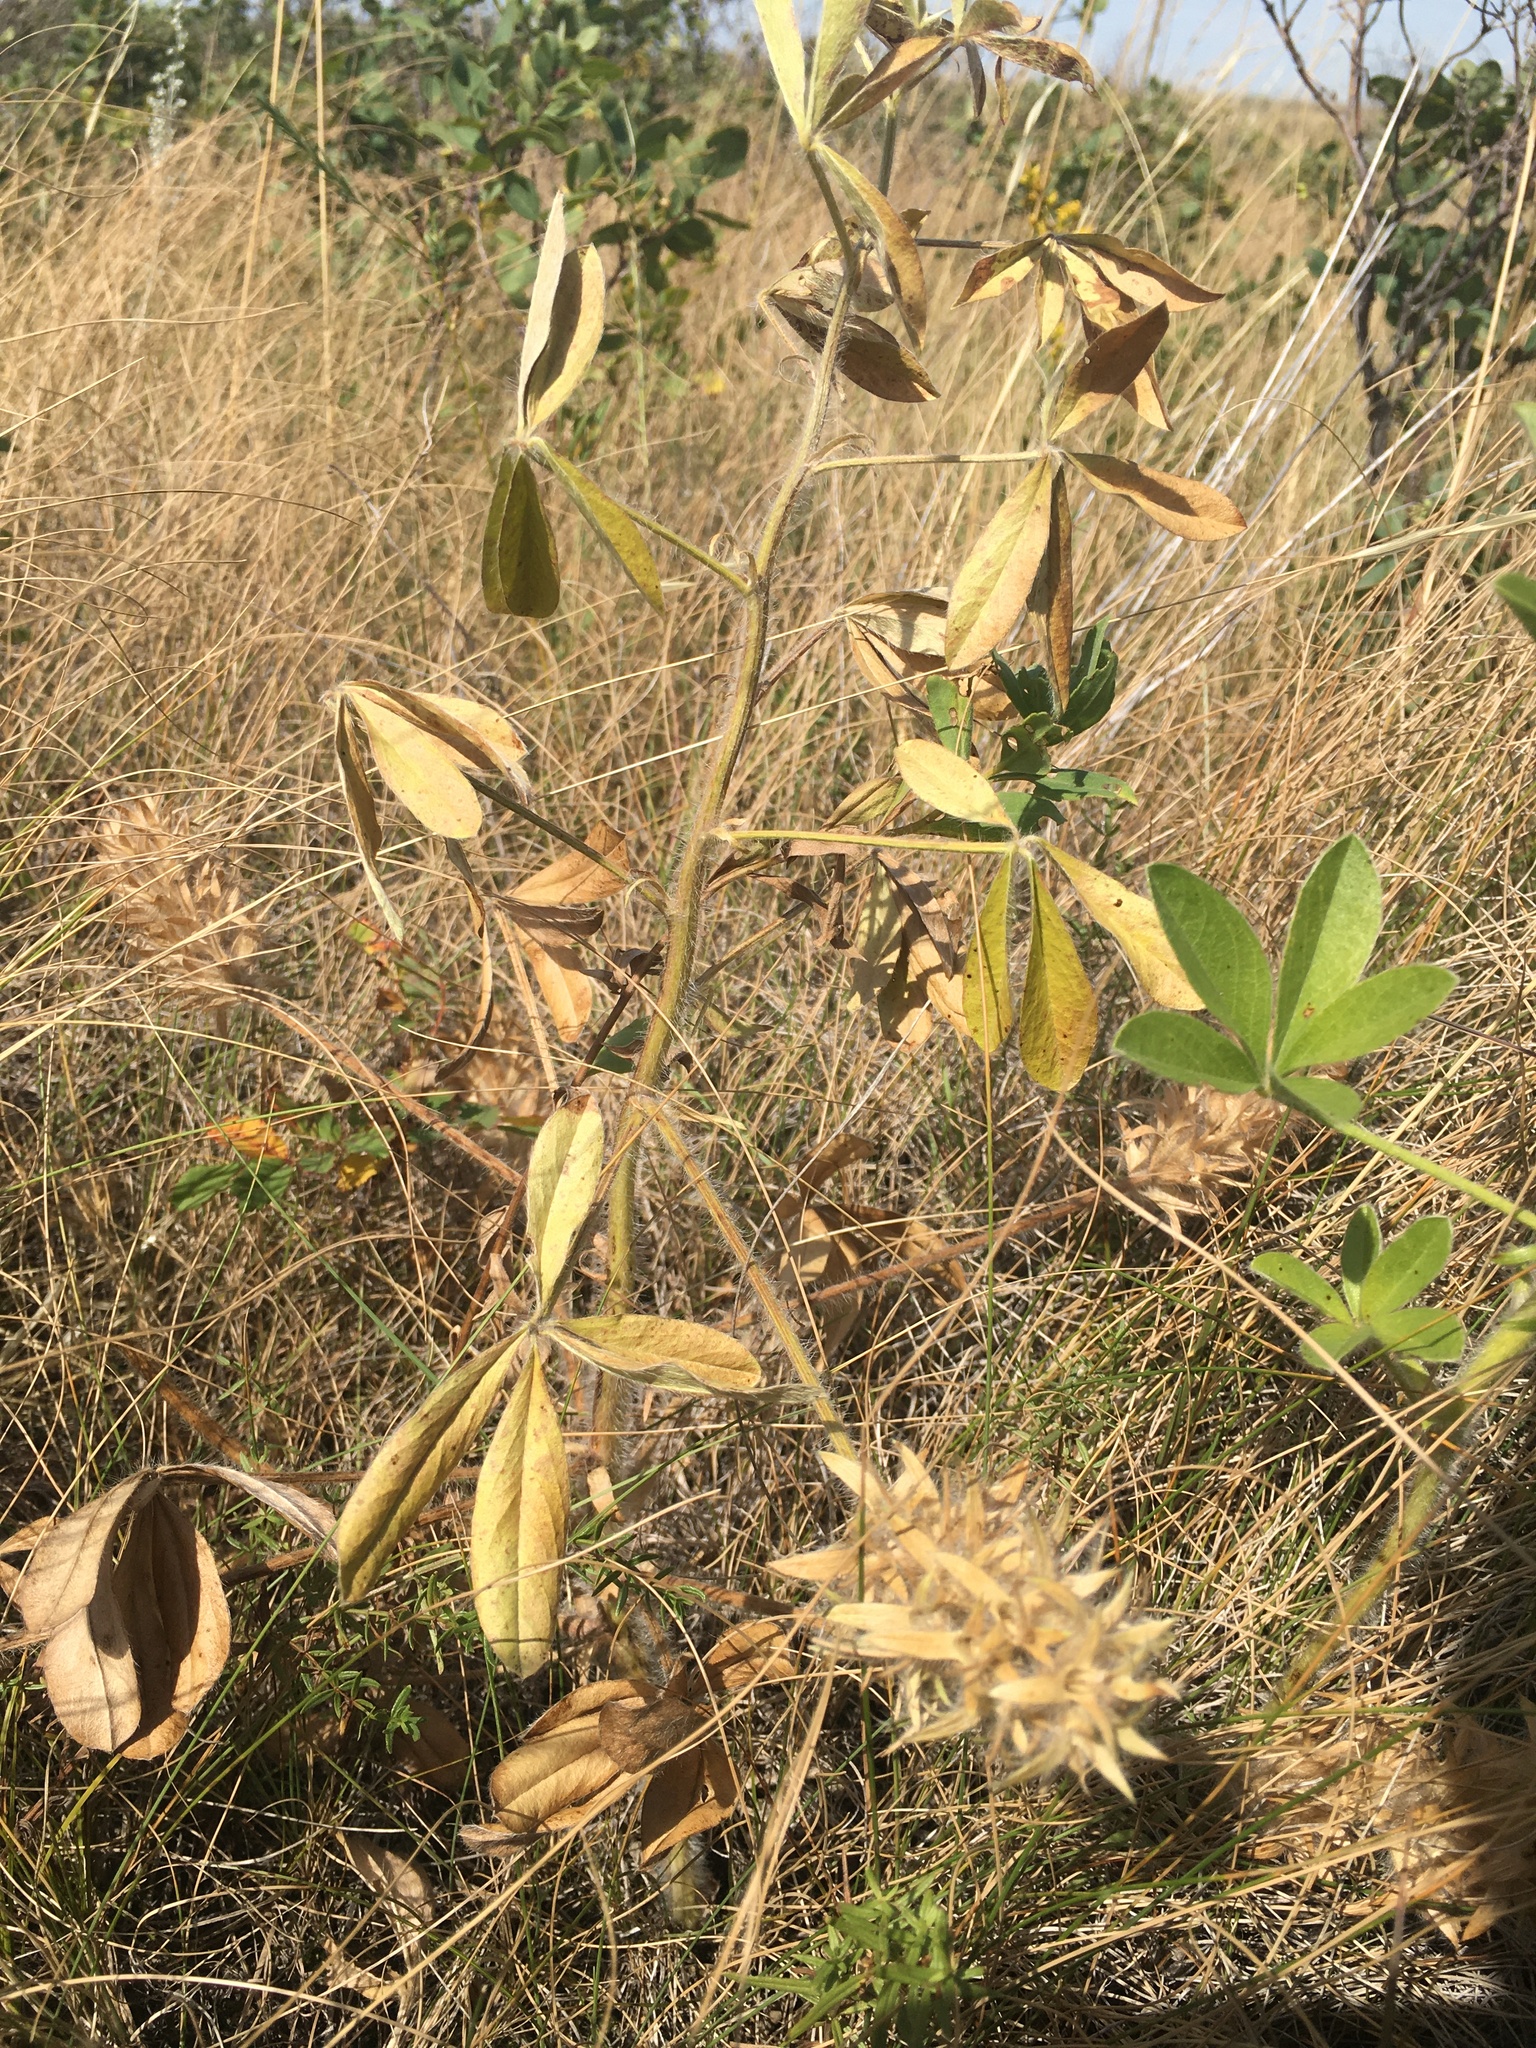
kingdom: Plantae
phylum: Tracheophyta
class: Magnoliopsida
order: Fabales
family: Fabaceae
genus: Pediomelum
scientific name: Pediomelum esculentum
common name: Indian-turnip
